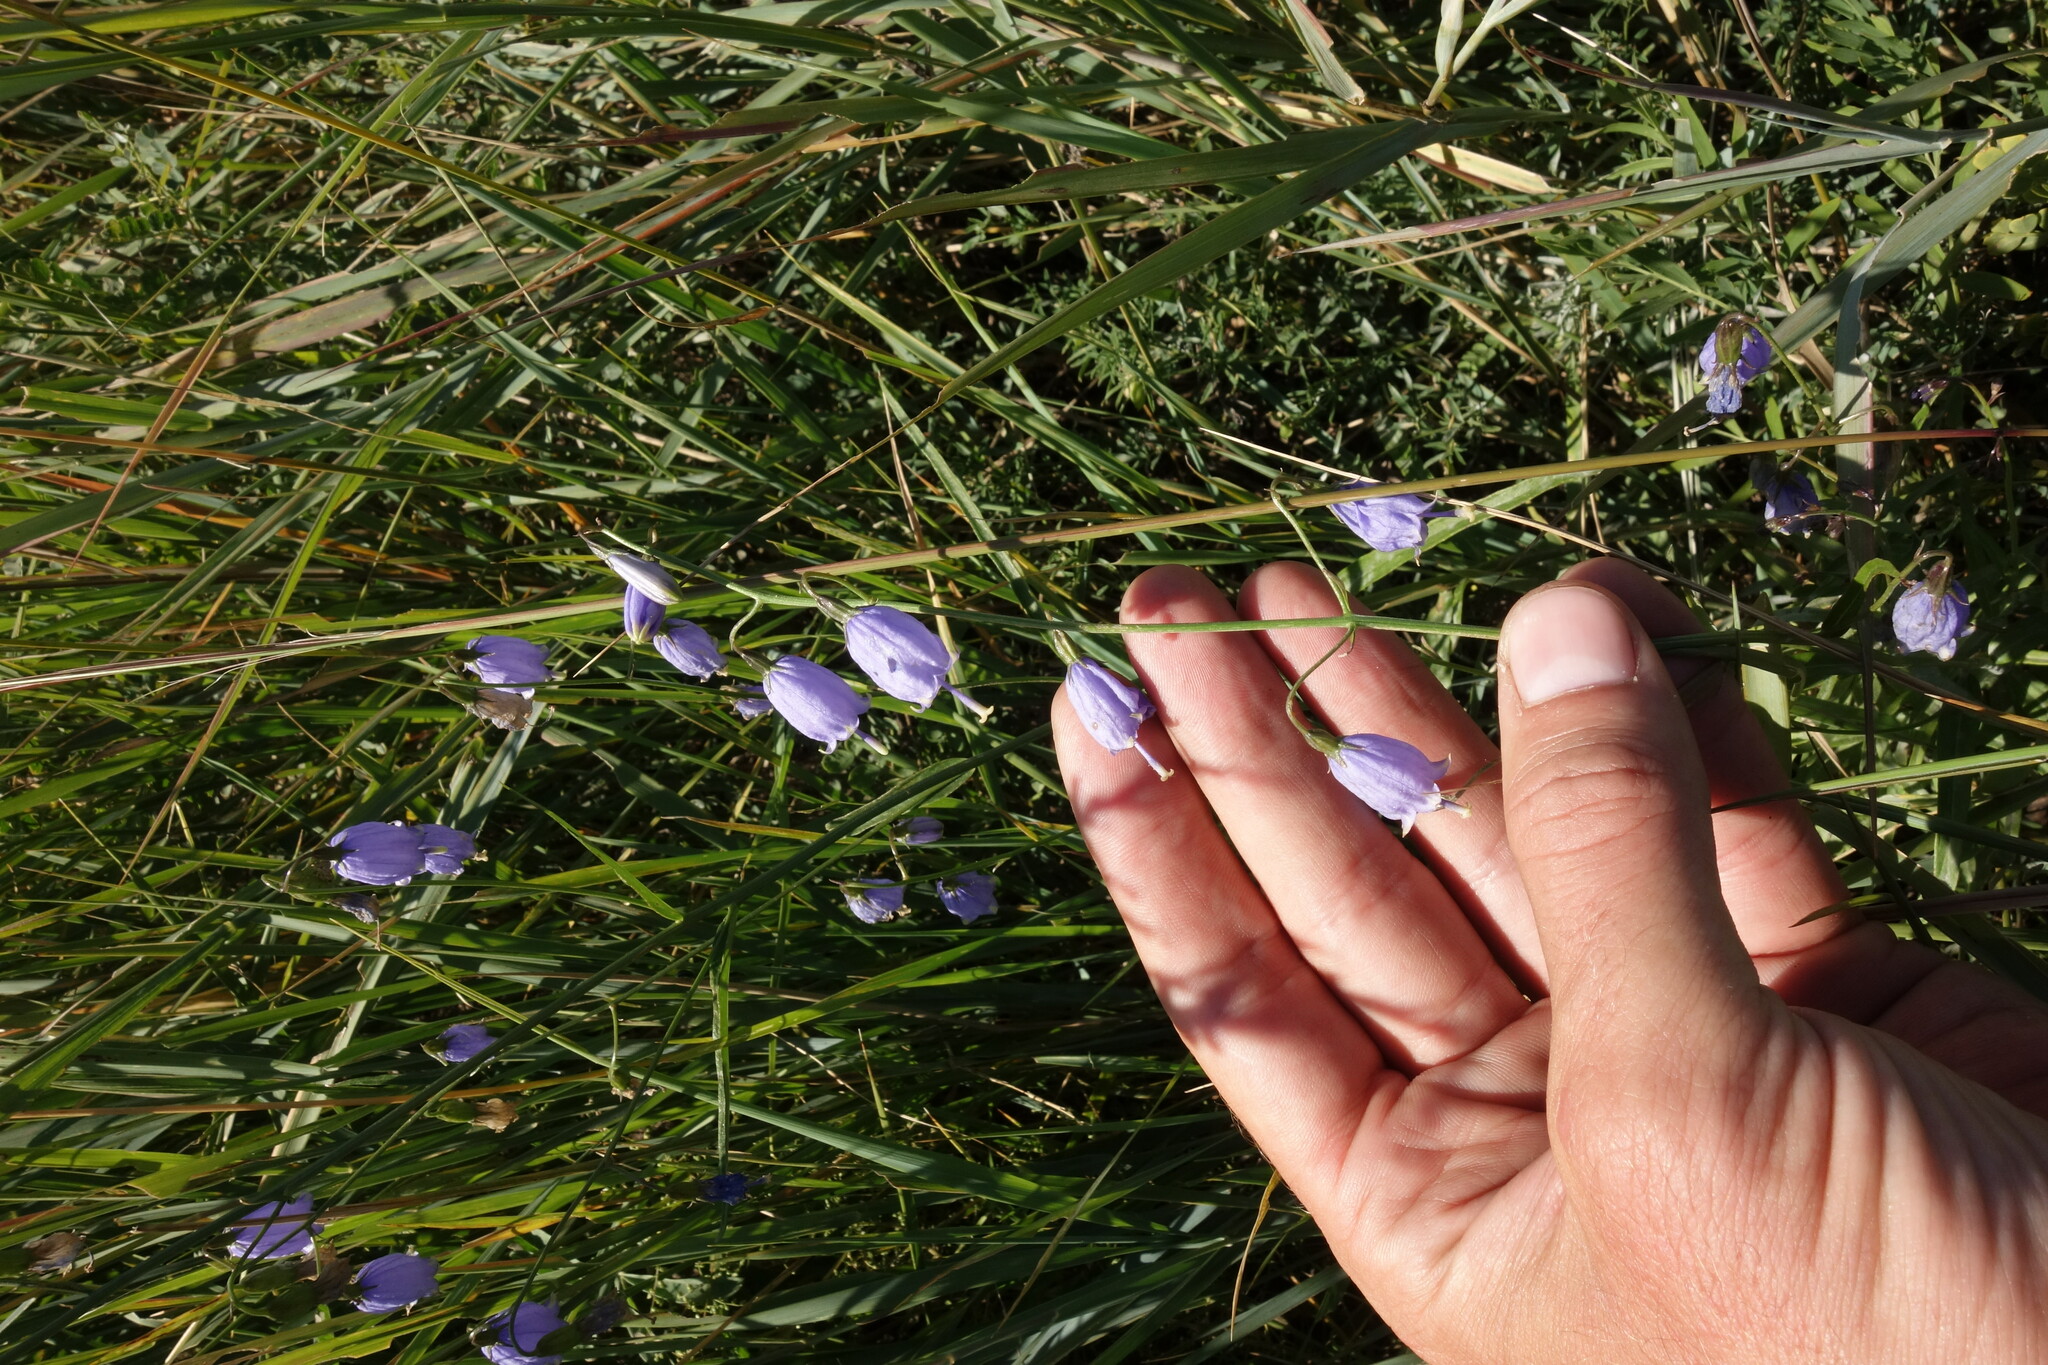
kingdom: Plantae
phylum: Tracheophyta
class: Magnoliopsida
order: Asterales
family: Campanulaceae
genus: Adenophora
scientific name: Adenophora stenanthina
